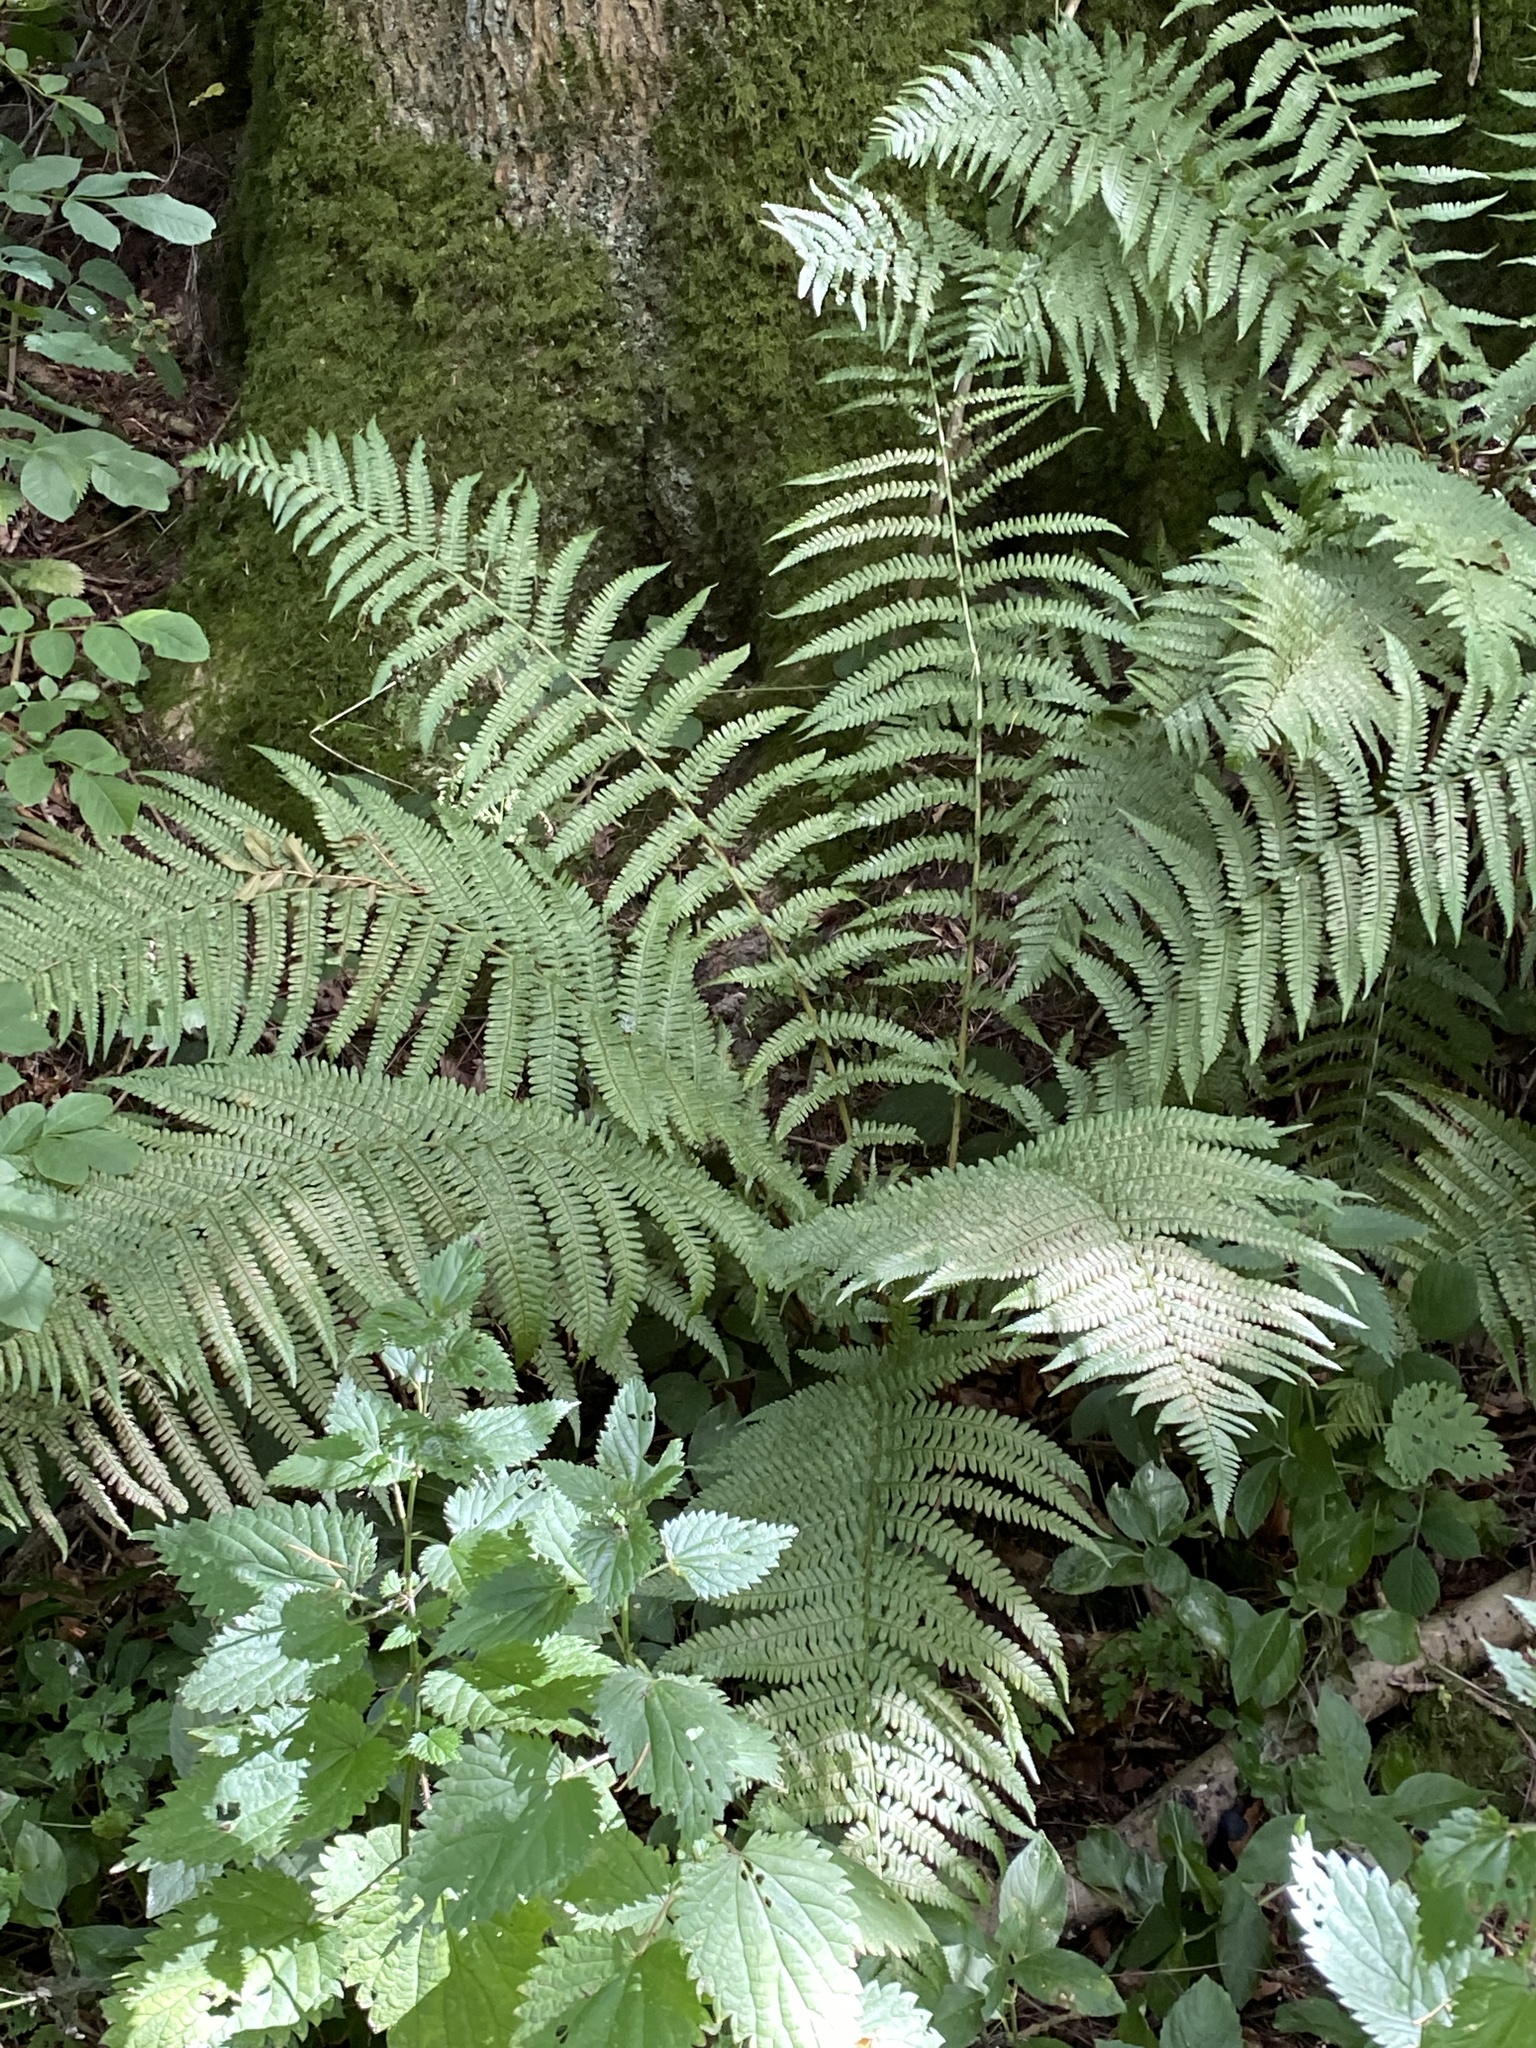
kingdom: Plantae
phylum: Tracheophyta
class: Polypodiopsida
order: Polypodiales
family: Dryopteridaceae
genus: Dryopteris
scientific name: Dryopteris filix-mas
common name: Male fern
